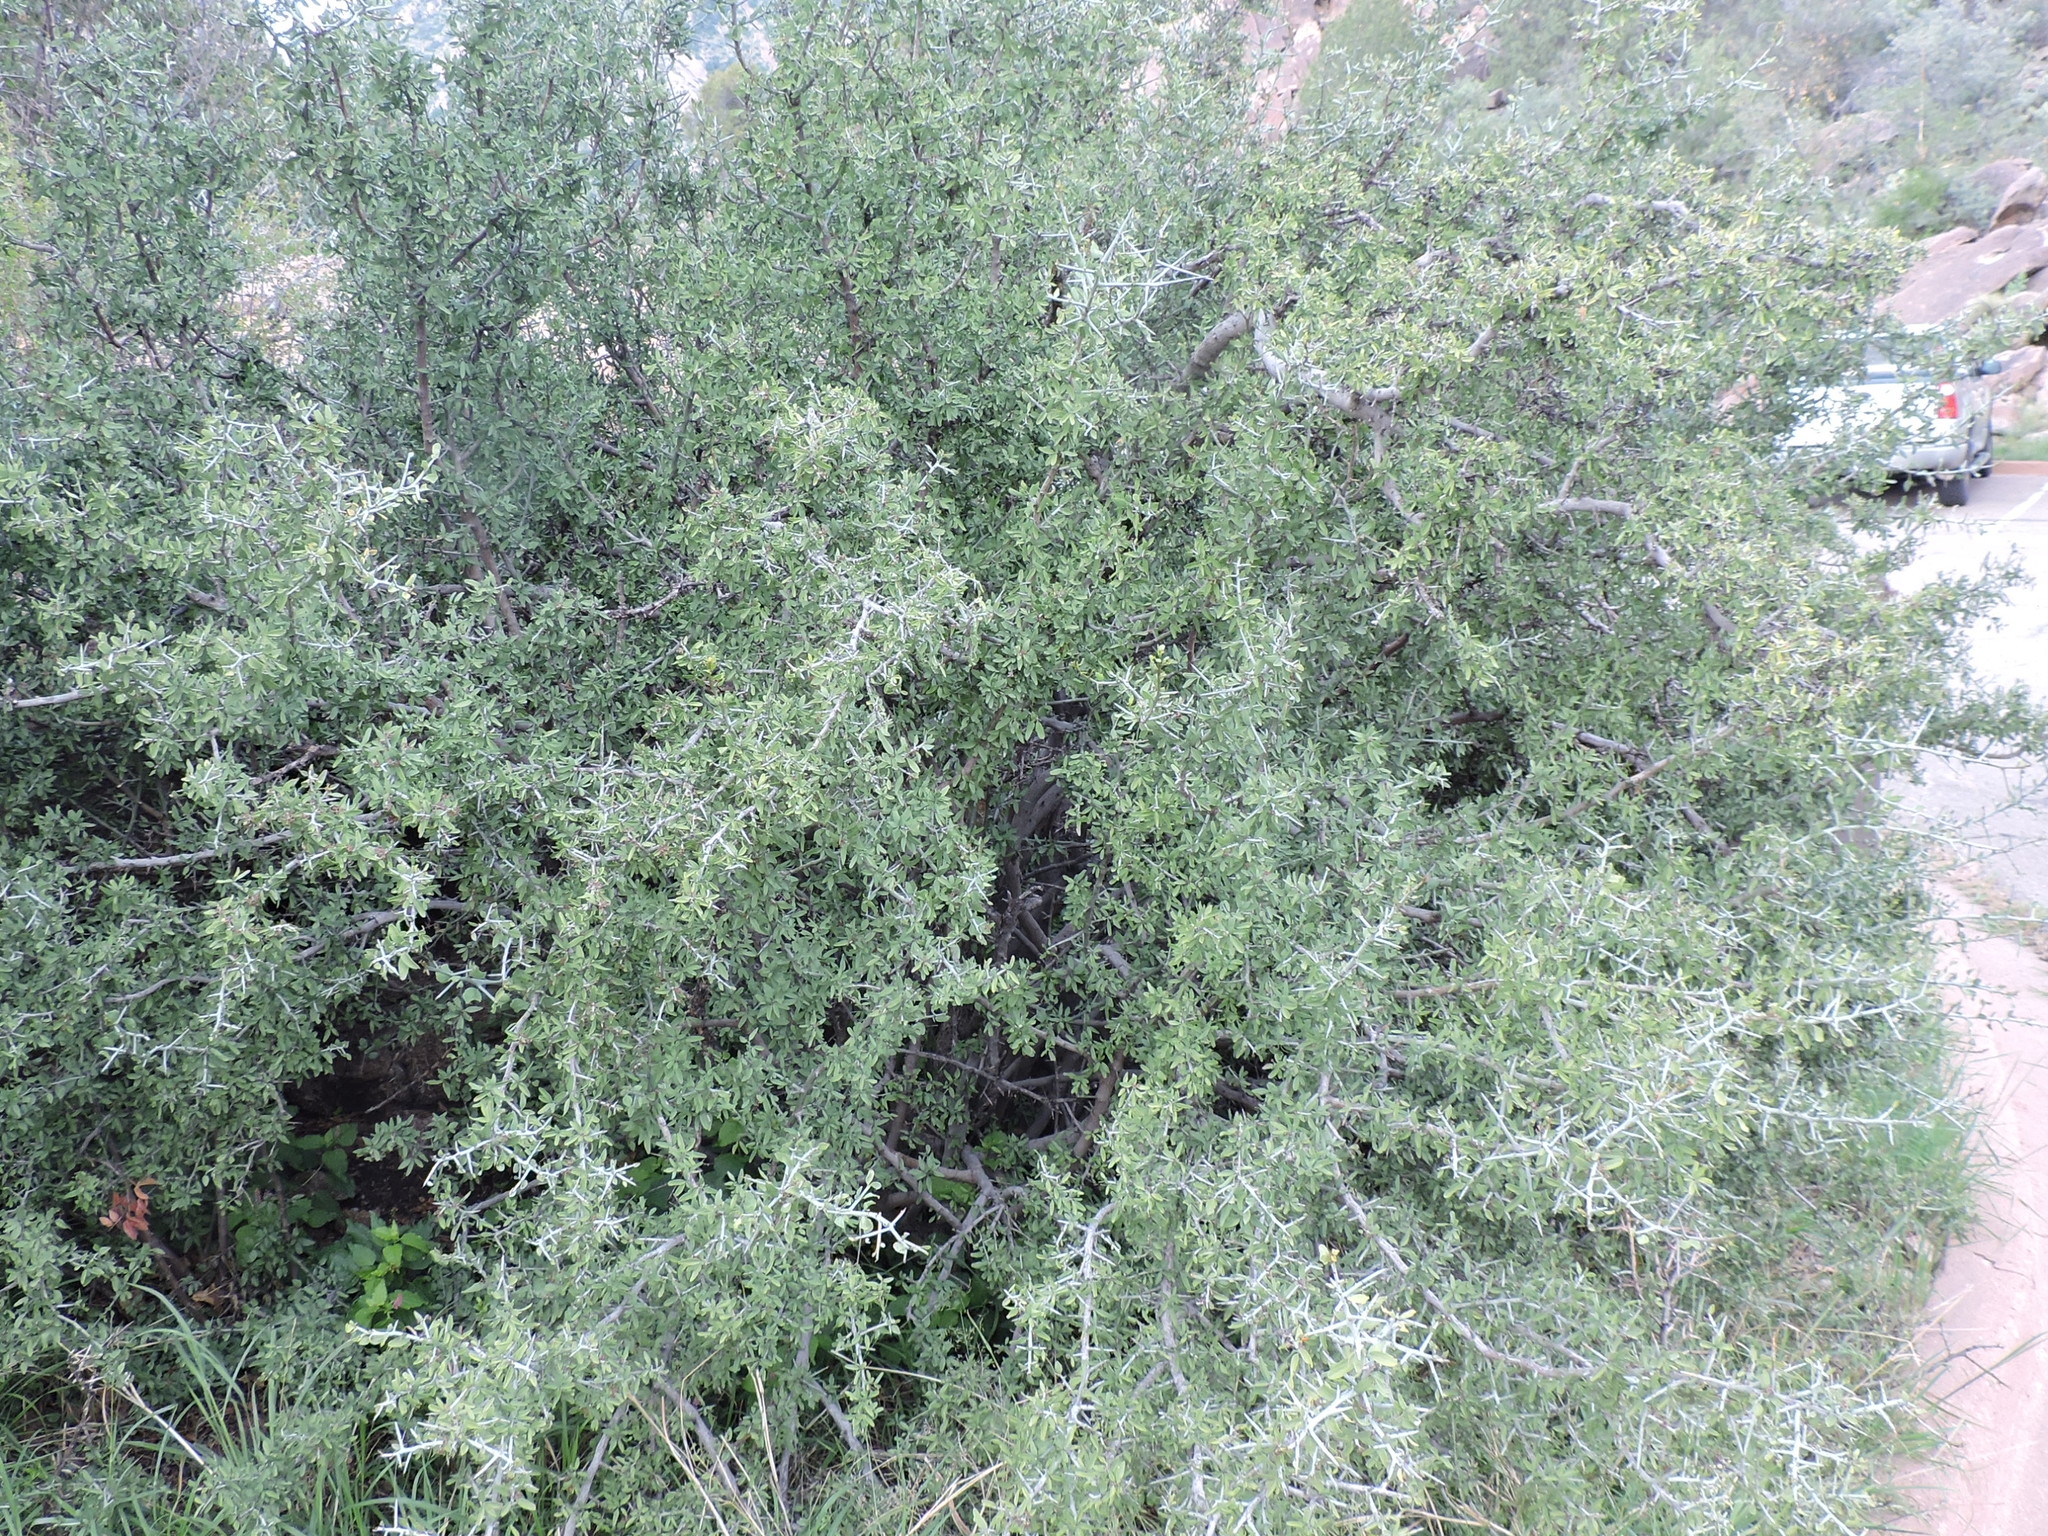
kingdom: Plantae
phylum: Tracheophyta
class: Magnoliopsida
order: Rosales
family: Rhamnaceae
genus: Sarcomphalus
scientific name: Sarcomphalus obtusifolius
